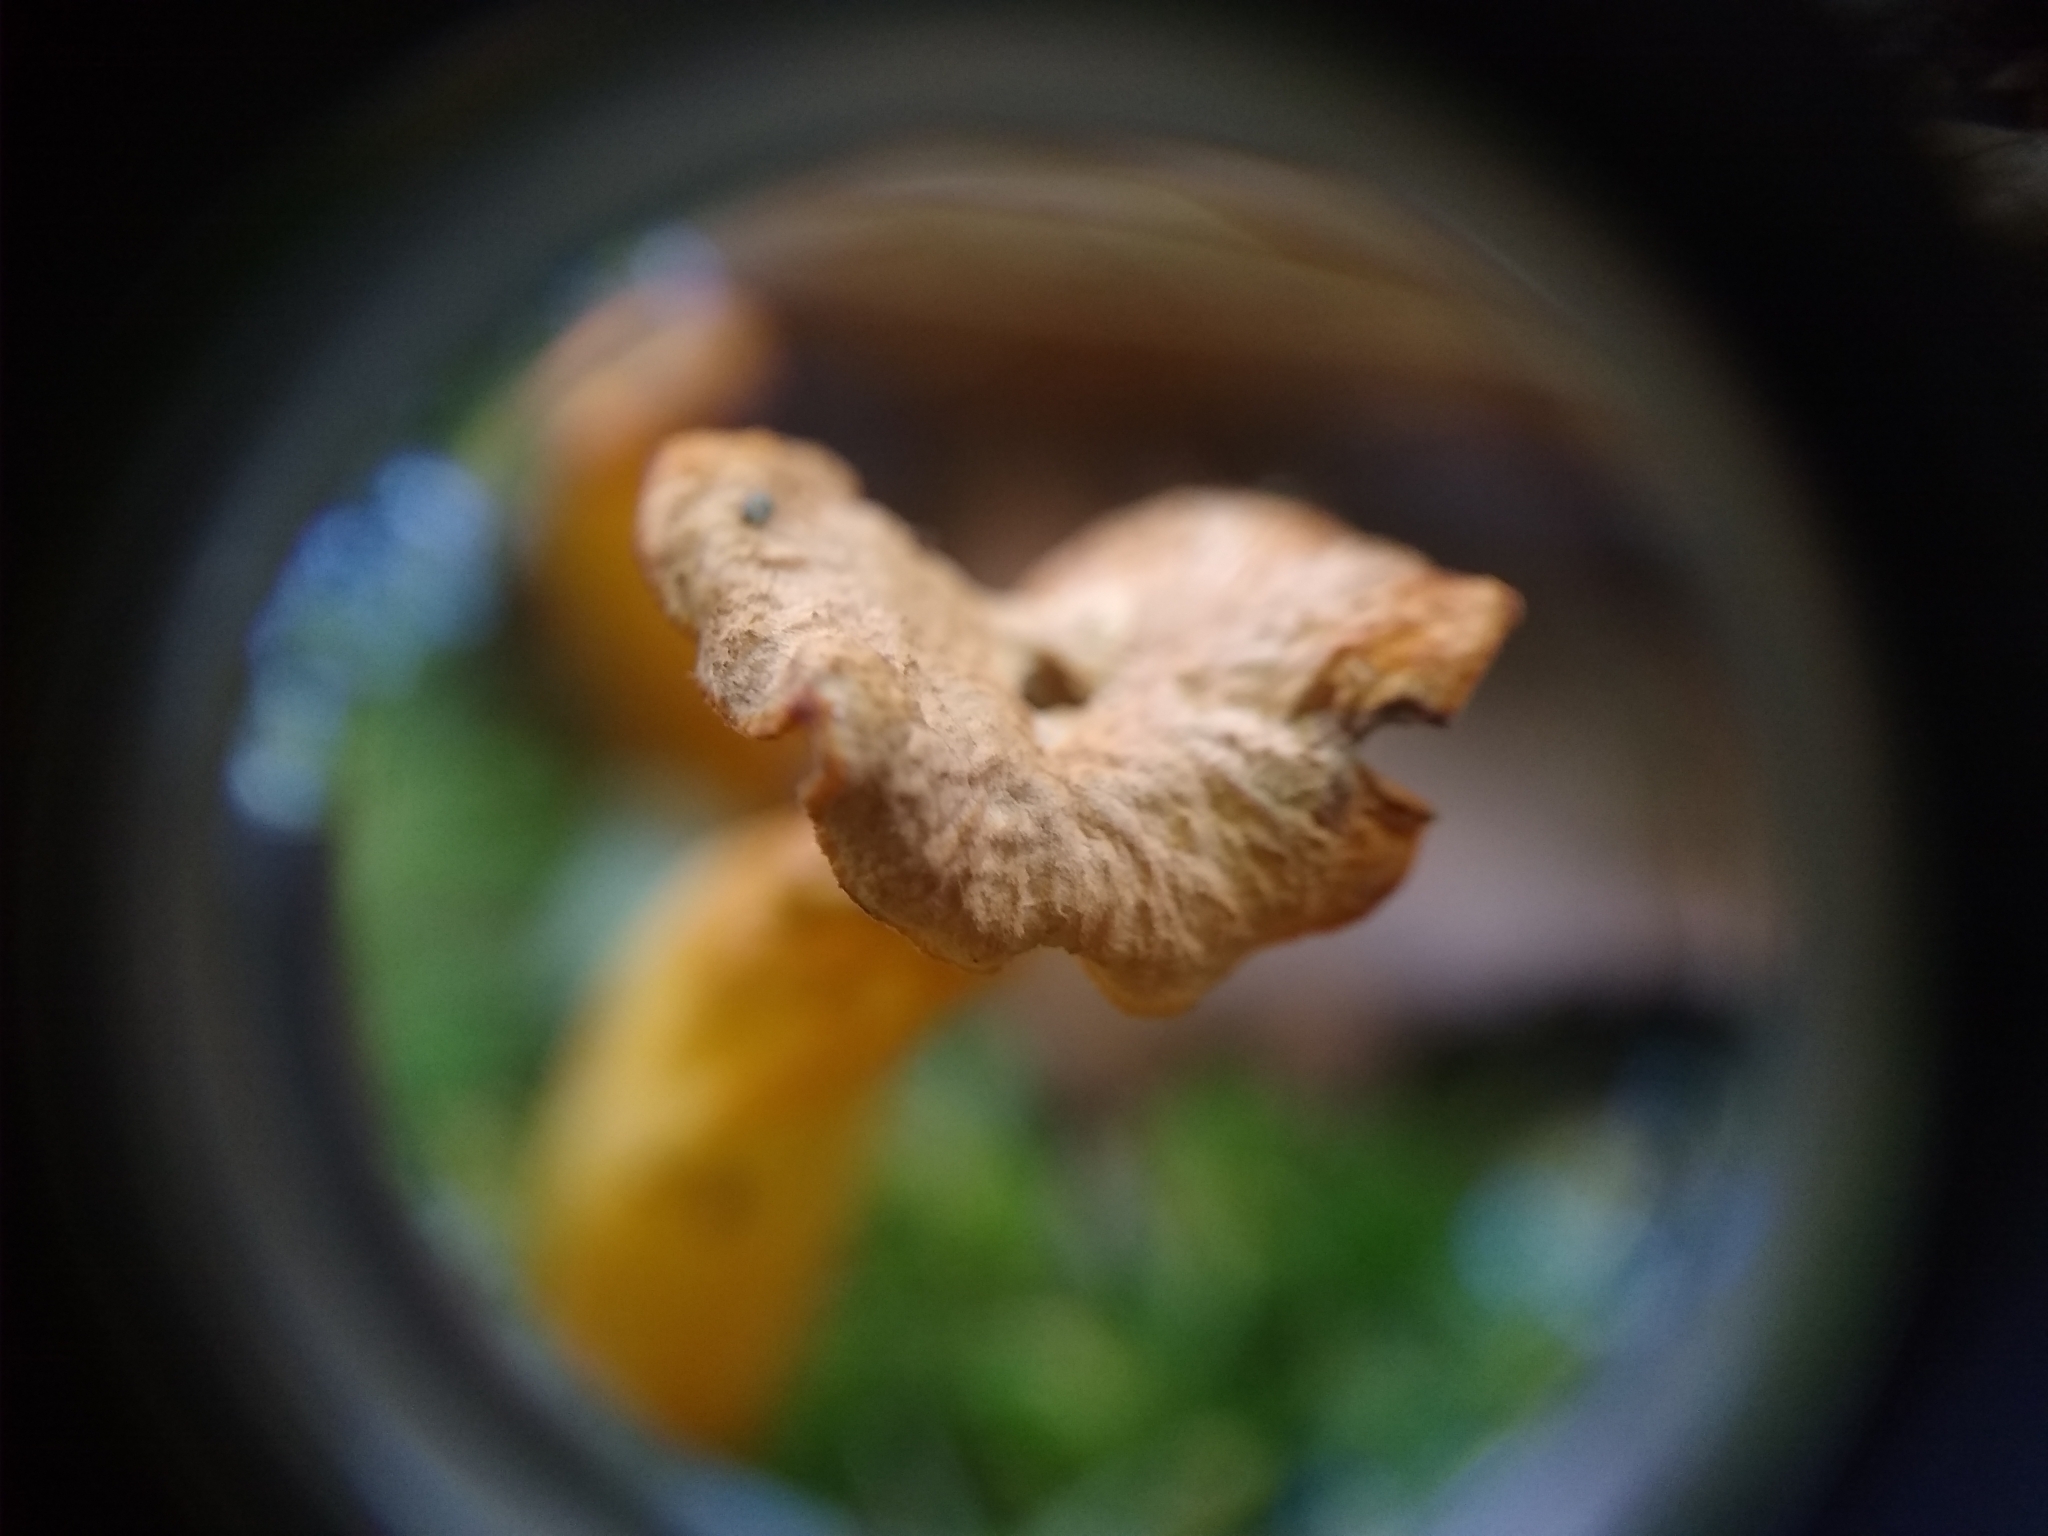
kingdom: Fungi
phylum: Basidiomycota
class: Agaricomycetes
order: Cantharellales
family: Hydnaceae
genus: Craterellus
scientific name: Craterellus tubaeformis
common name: Yellowfoot
